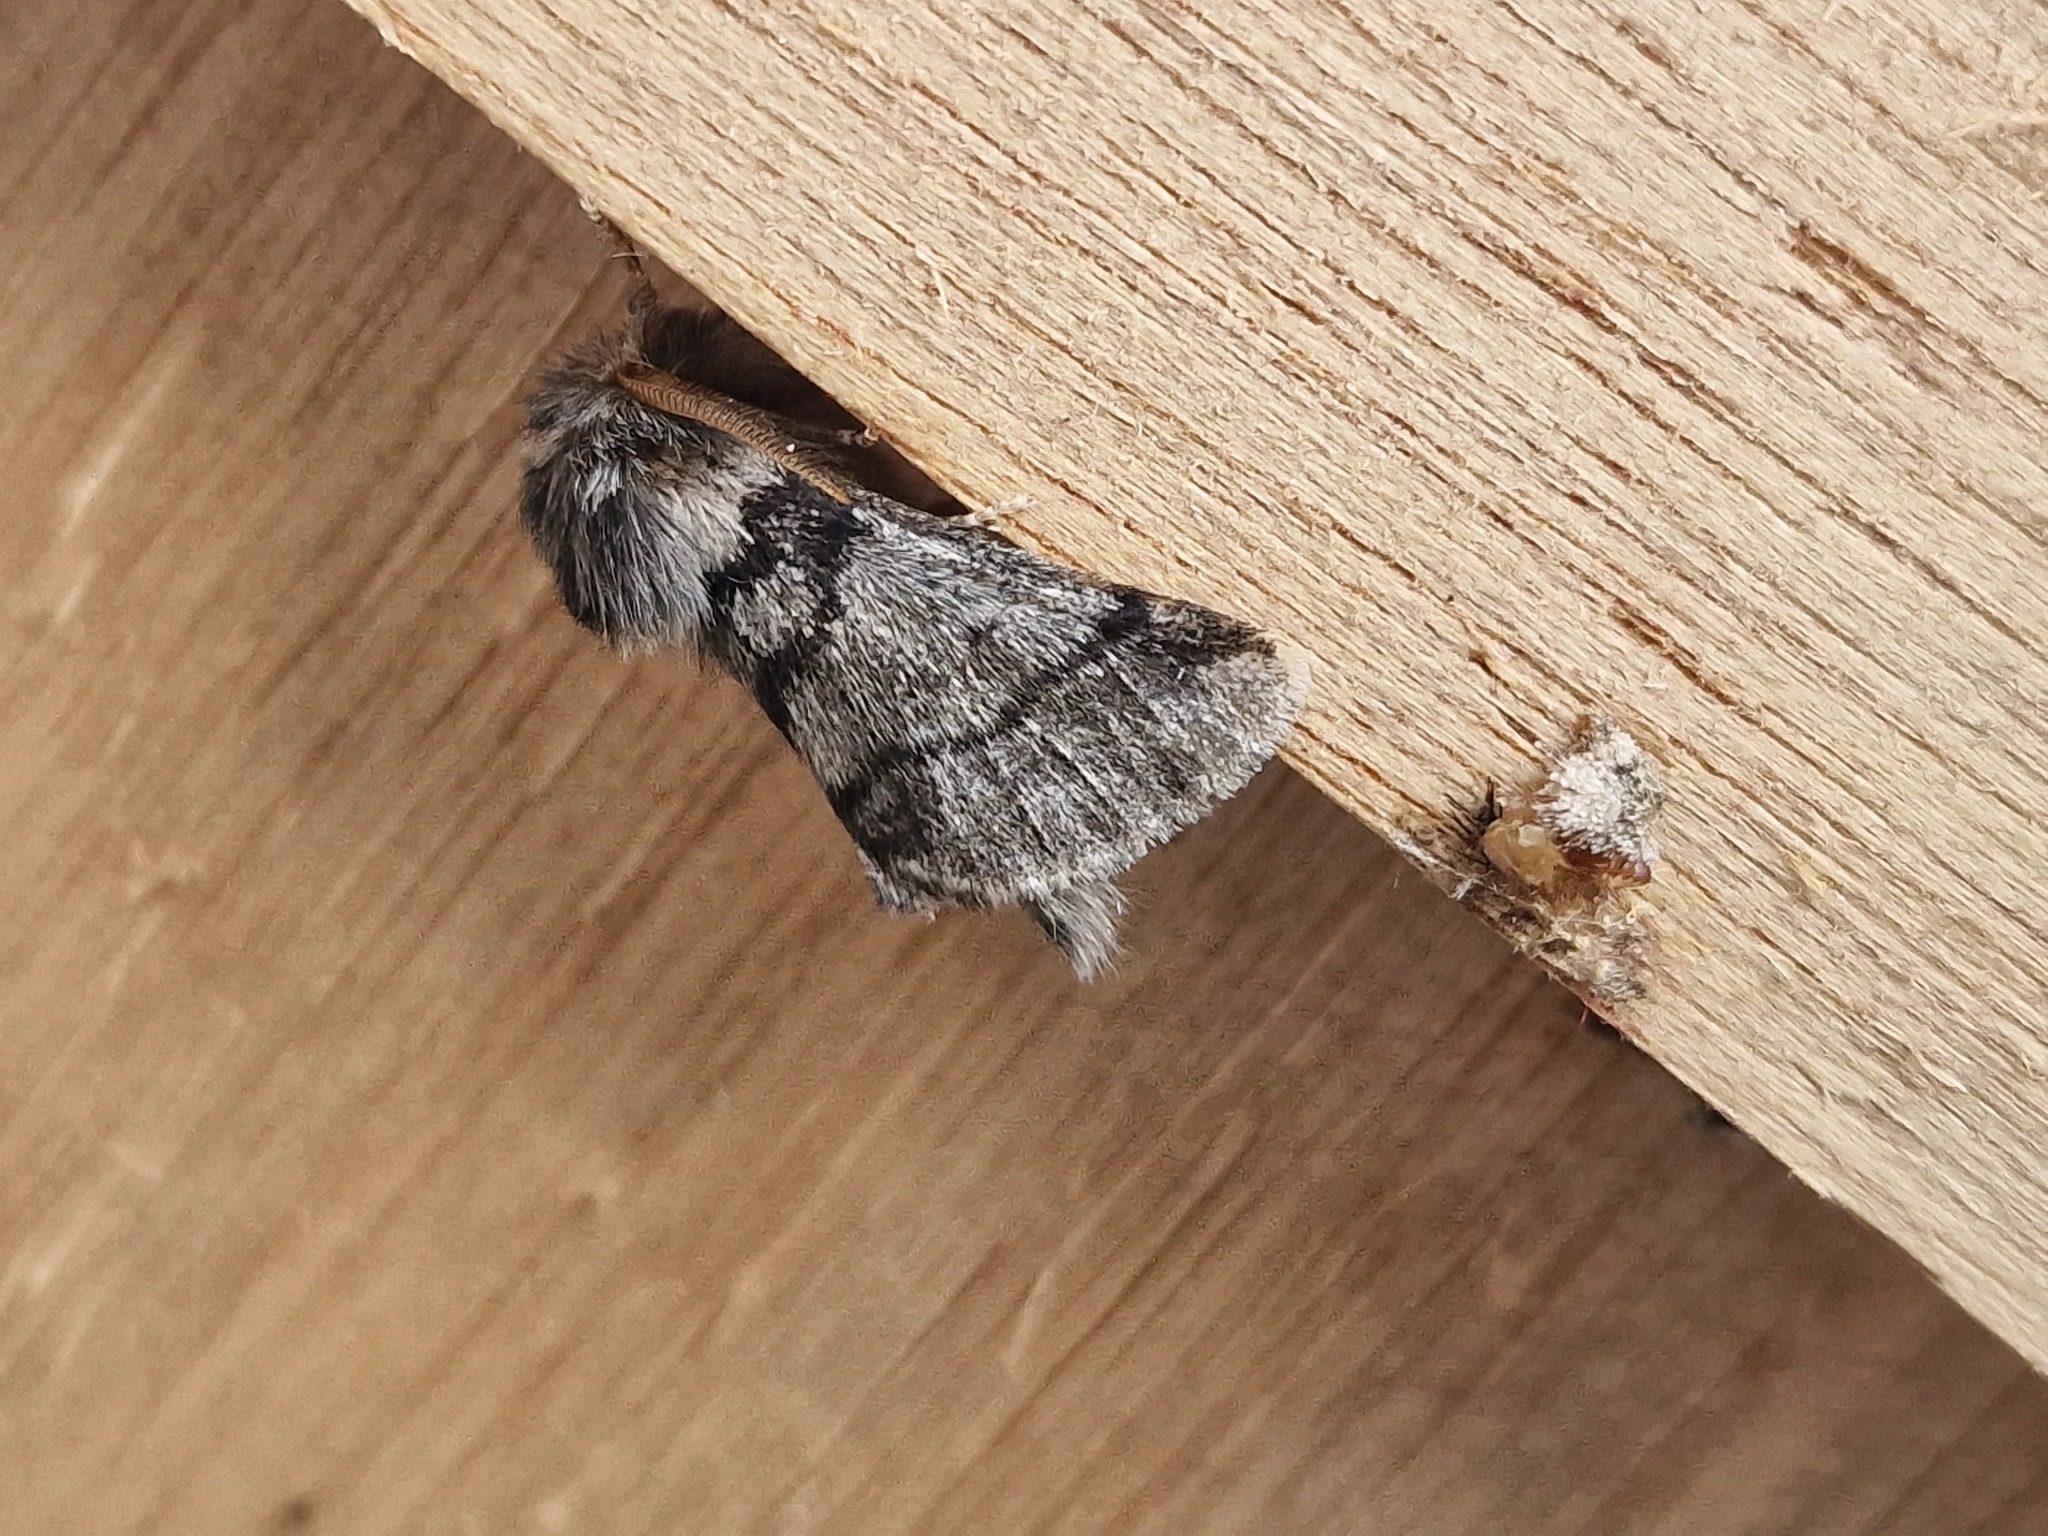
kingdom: Animalia
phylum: Arthropoda
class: Insecta
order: Lepidoptera
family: Notodontidae
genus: Thaumetopoea
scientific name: Thaumetopoea processionea
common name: Oak processionea
